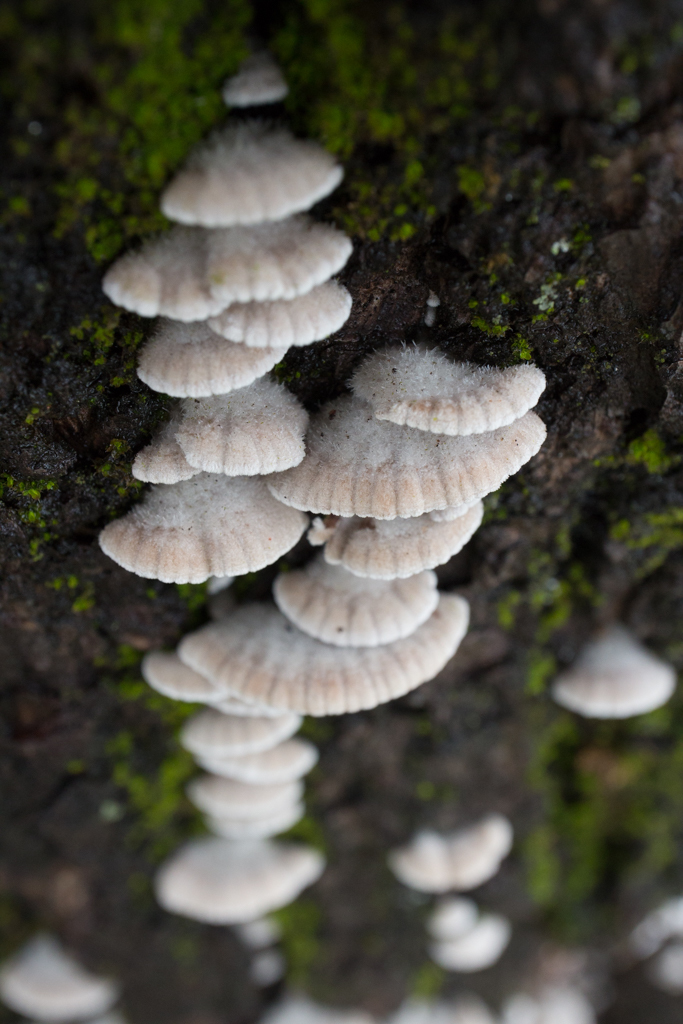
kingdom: Fungi
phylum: Basidiomycota
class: Agaricomycetes
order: Agaricales
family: Schizophyllaceae
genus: Schizophyllum
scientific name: Schizophyllum commune
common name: Common porecrust
